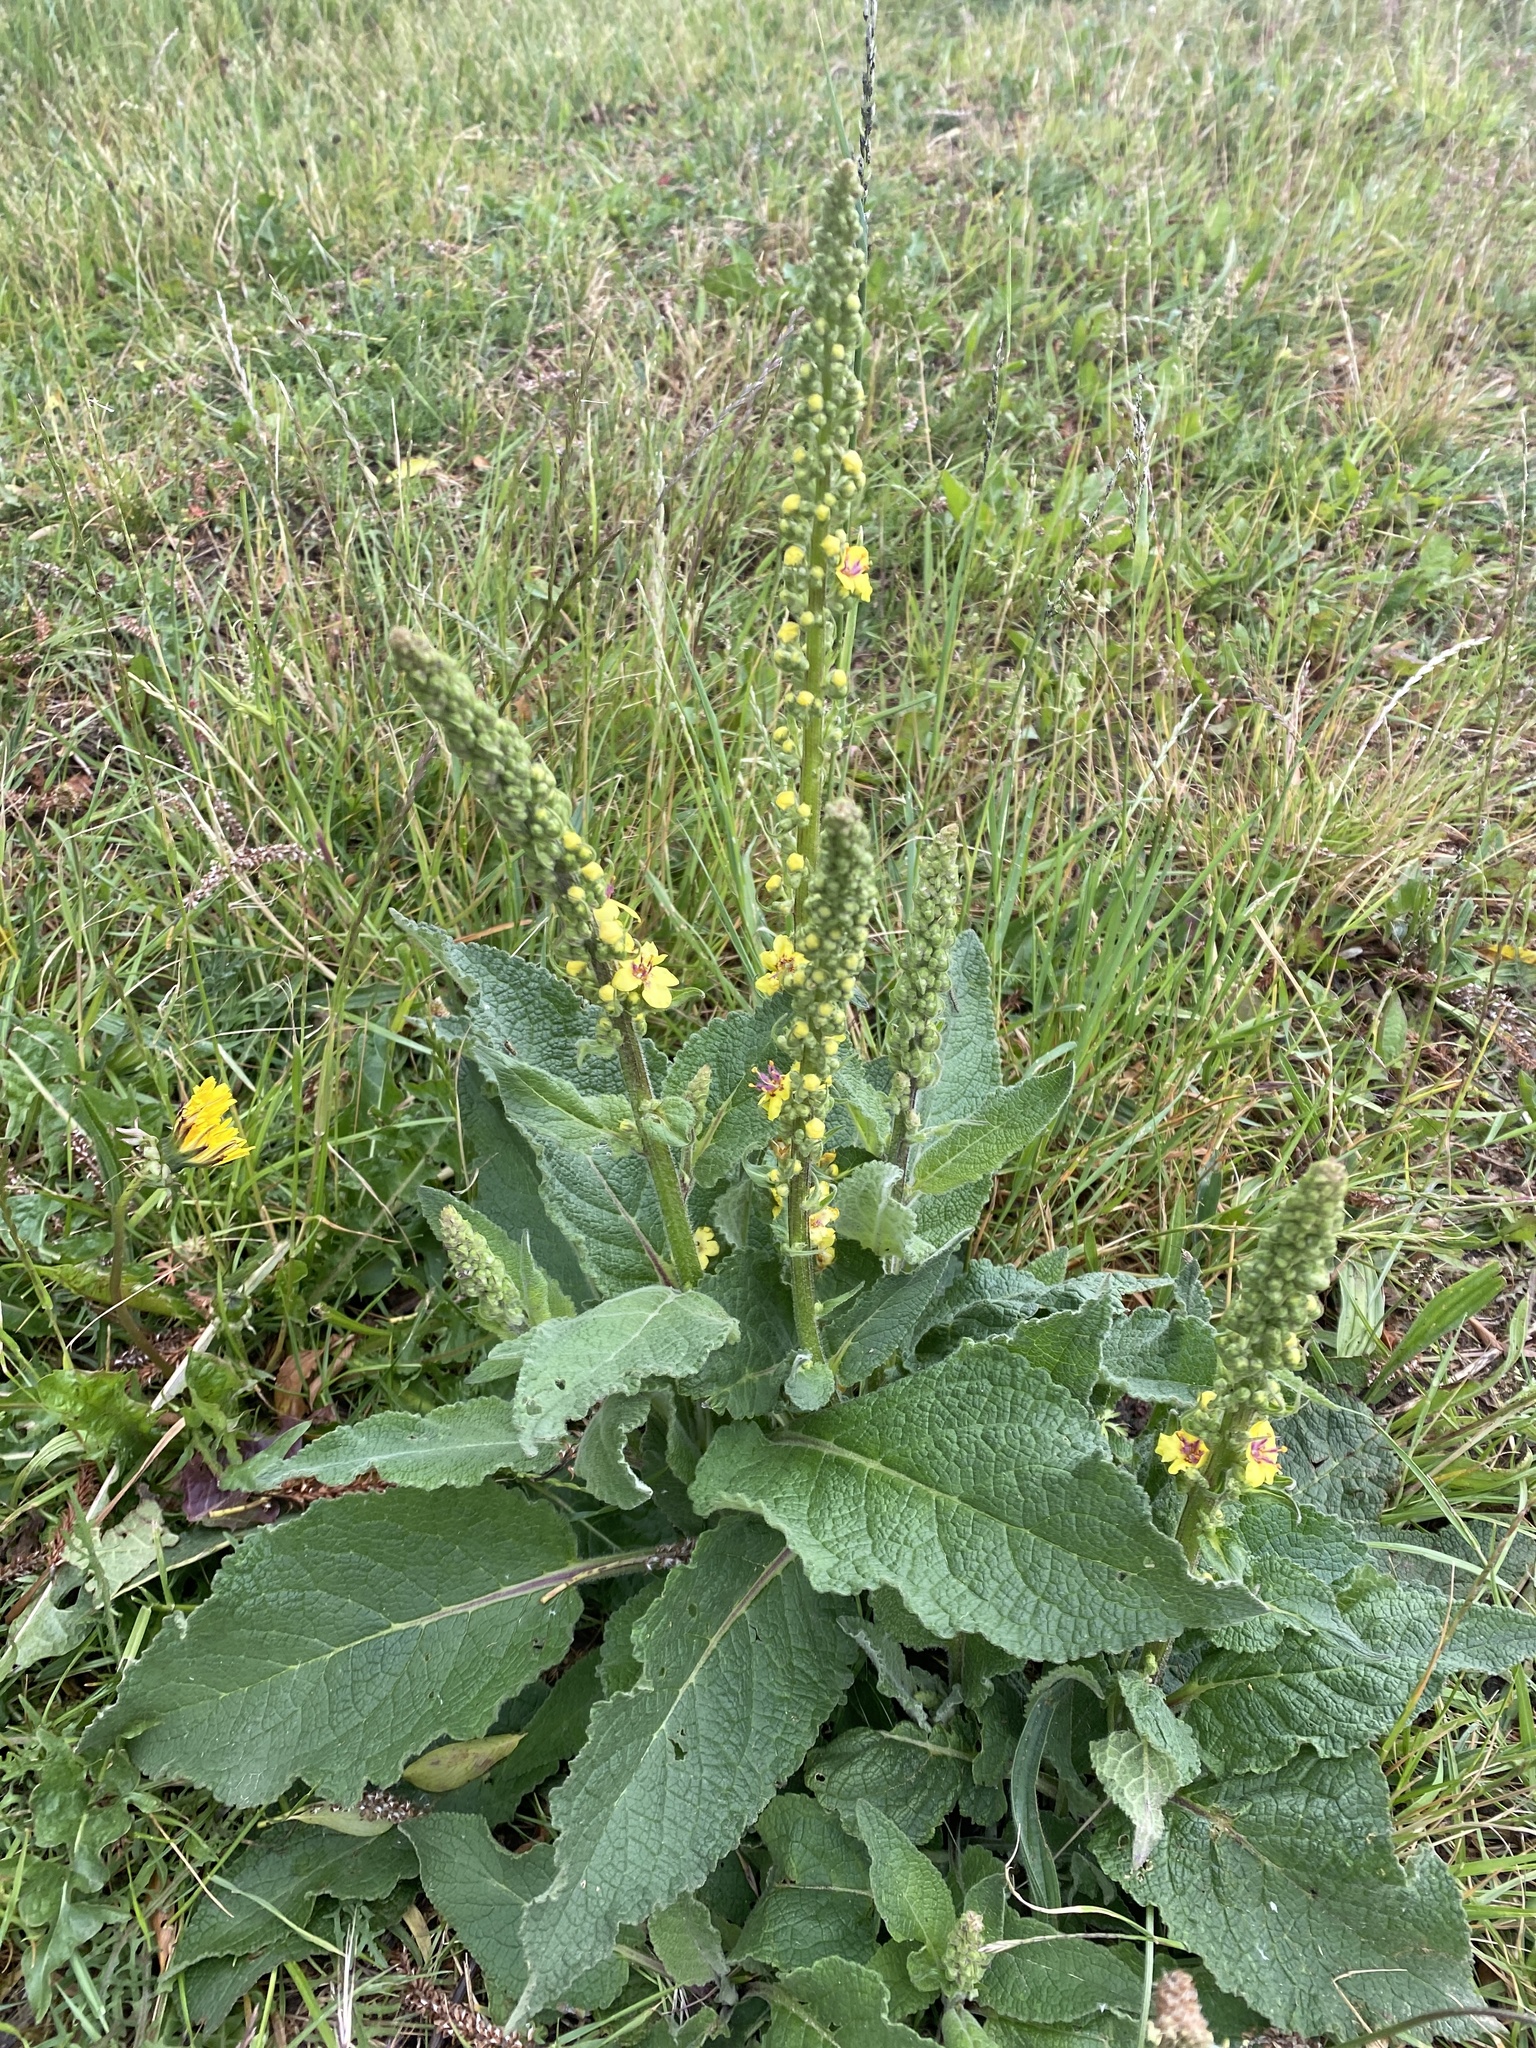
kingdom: Plantae
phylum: Tracheophyta
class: Magnoliopsida
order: Lamiales
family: Scrophulariaceae
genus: Verbascum
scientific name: Verbascum nigrum
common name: Dark mullein
